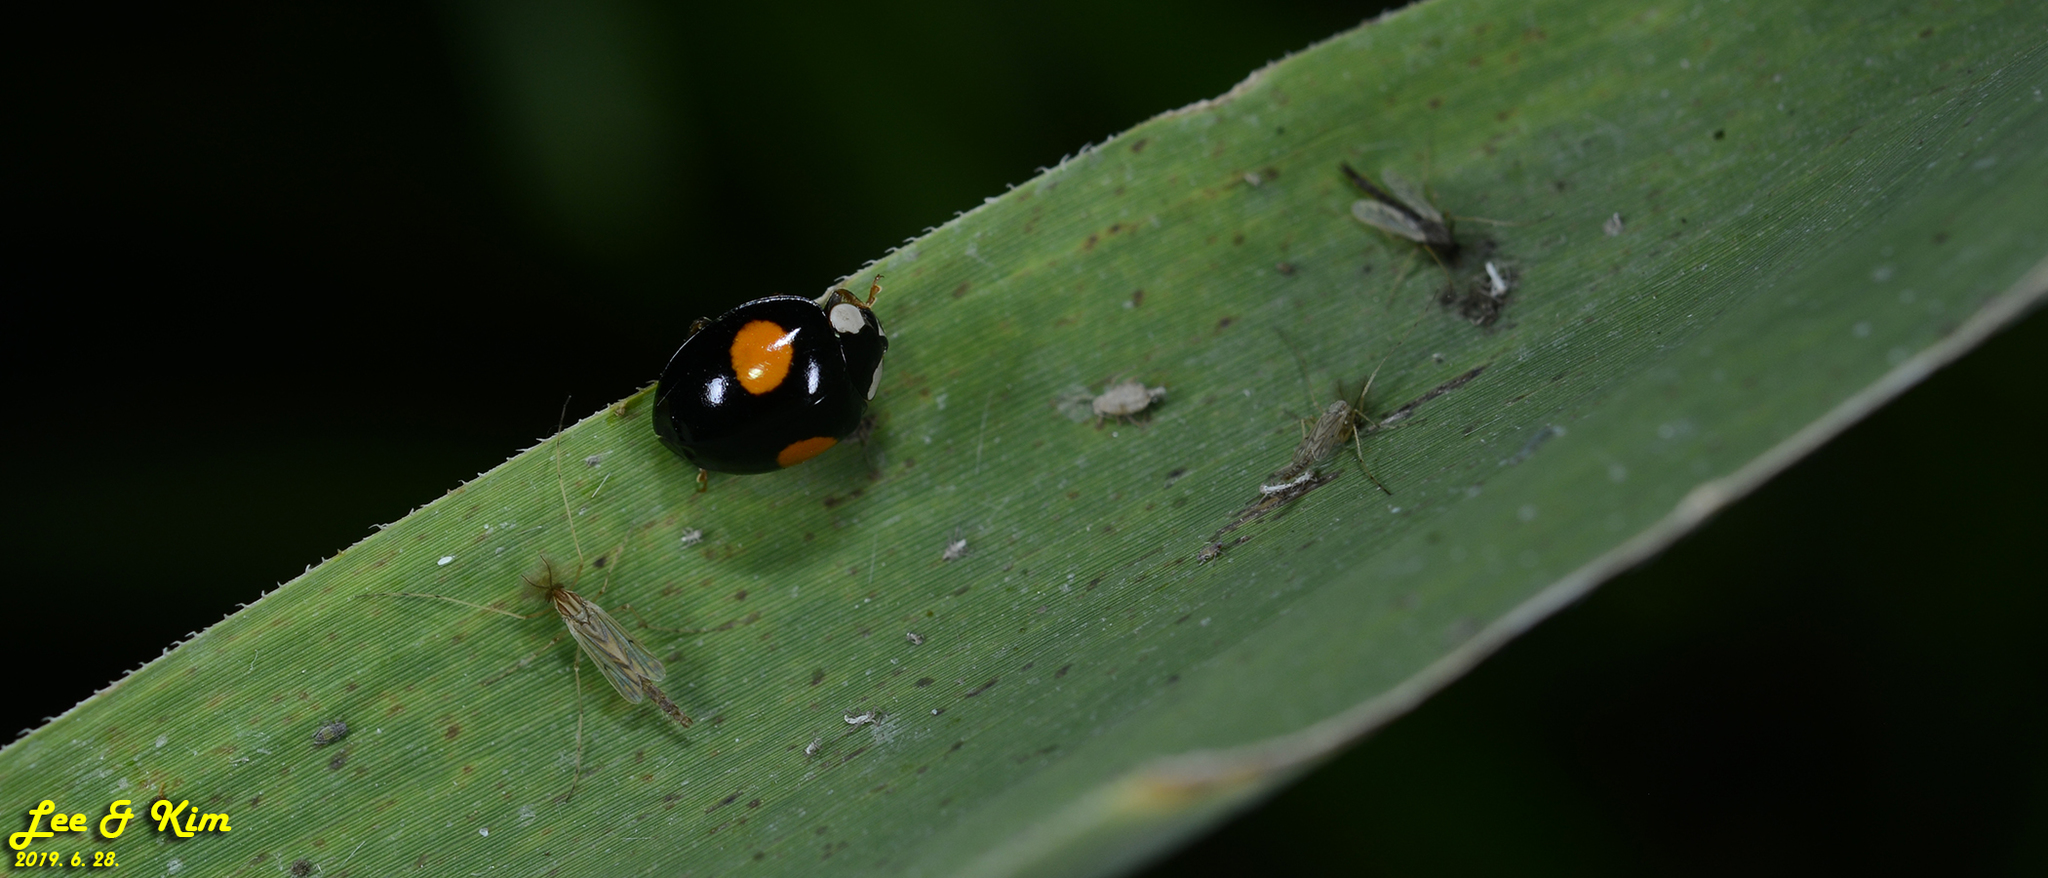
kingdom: Animalia
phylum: Arthropoda
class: Insecta
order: Coleoptera
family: Coccinellidae
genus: Harmonia
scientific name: Harmonia axyridis
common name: Harlequin ladybird
